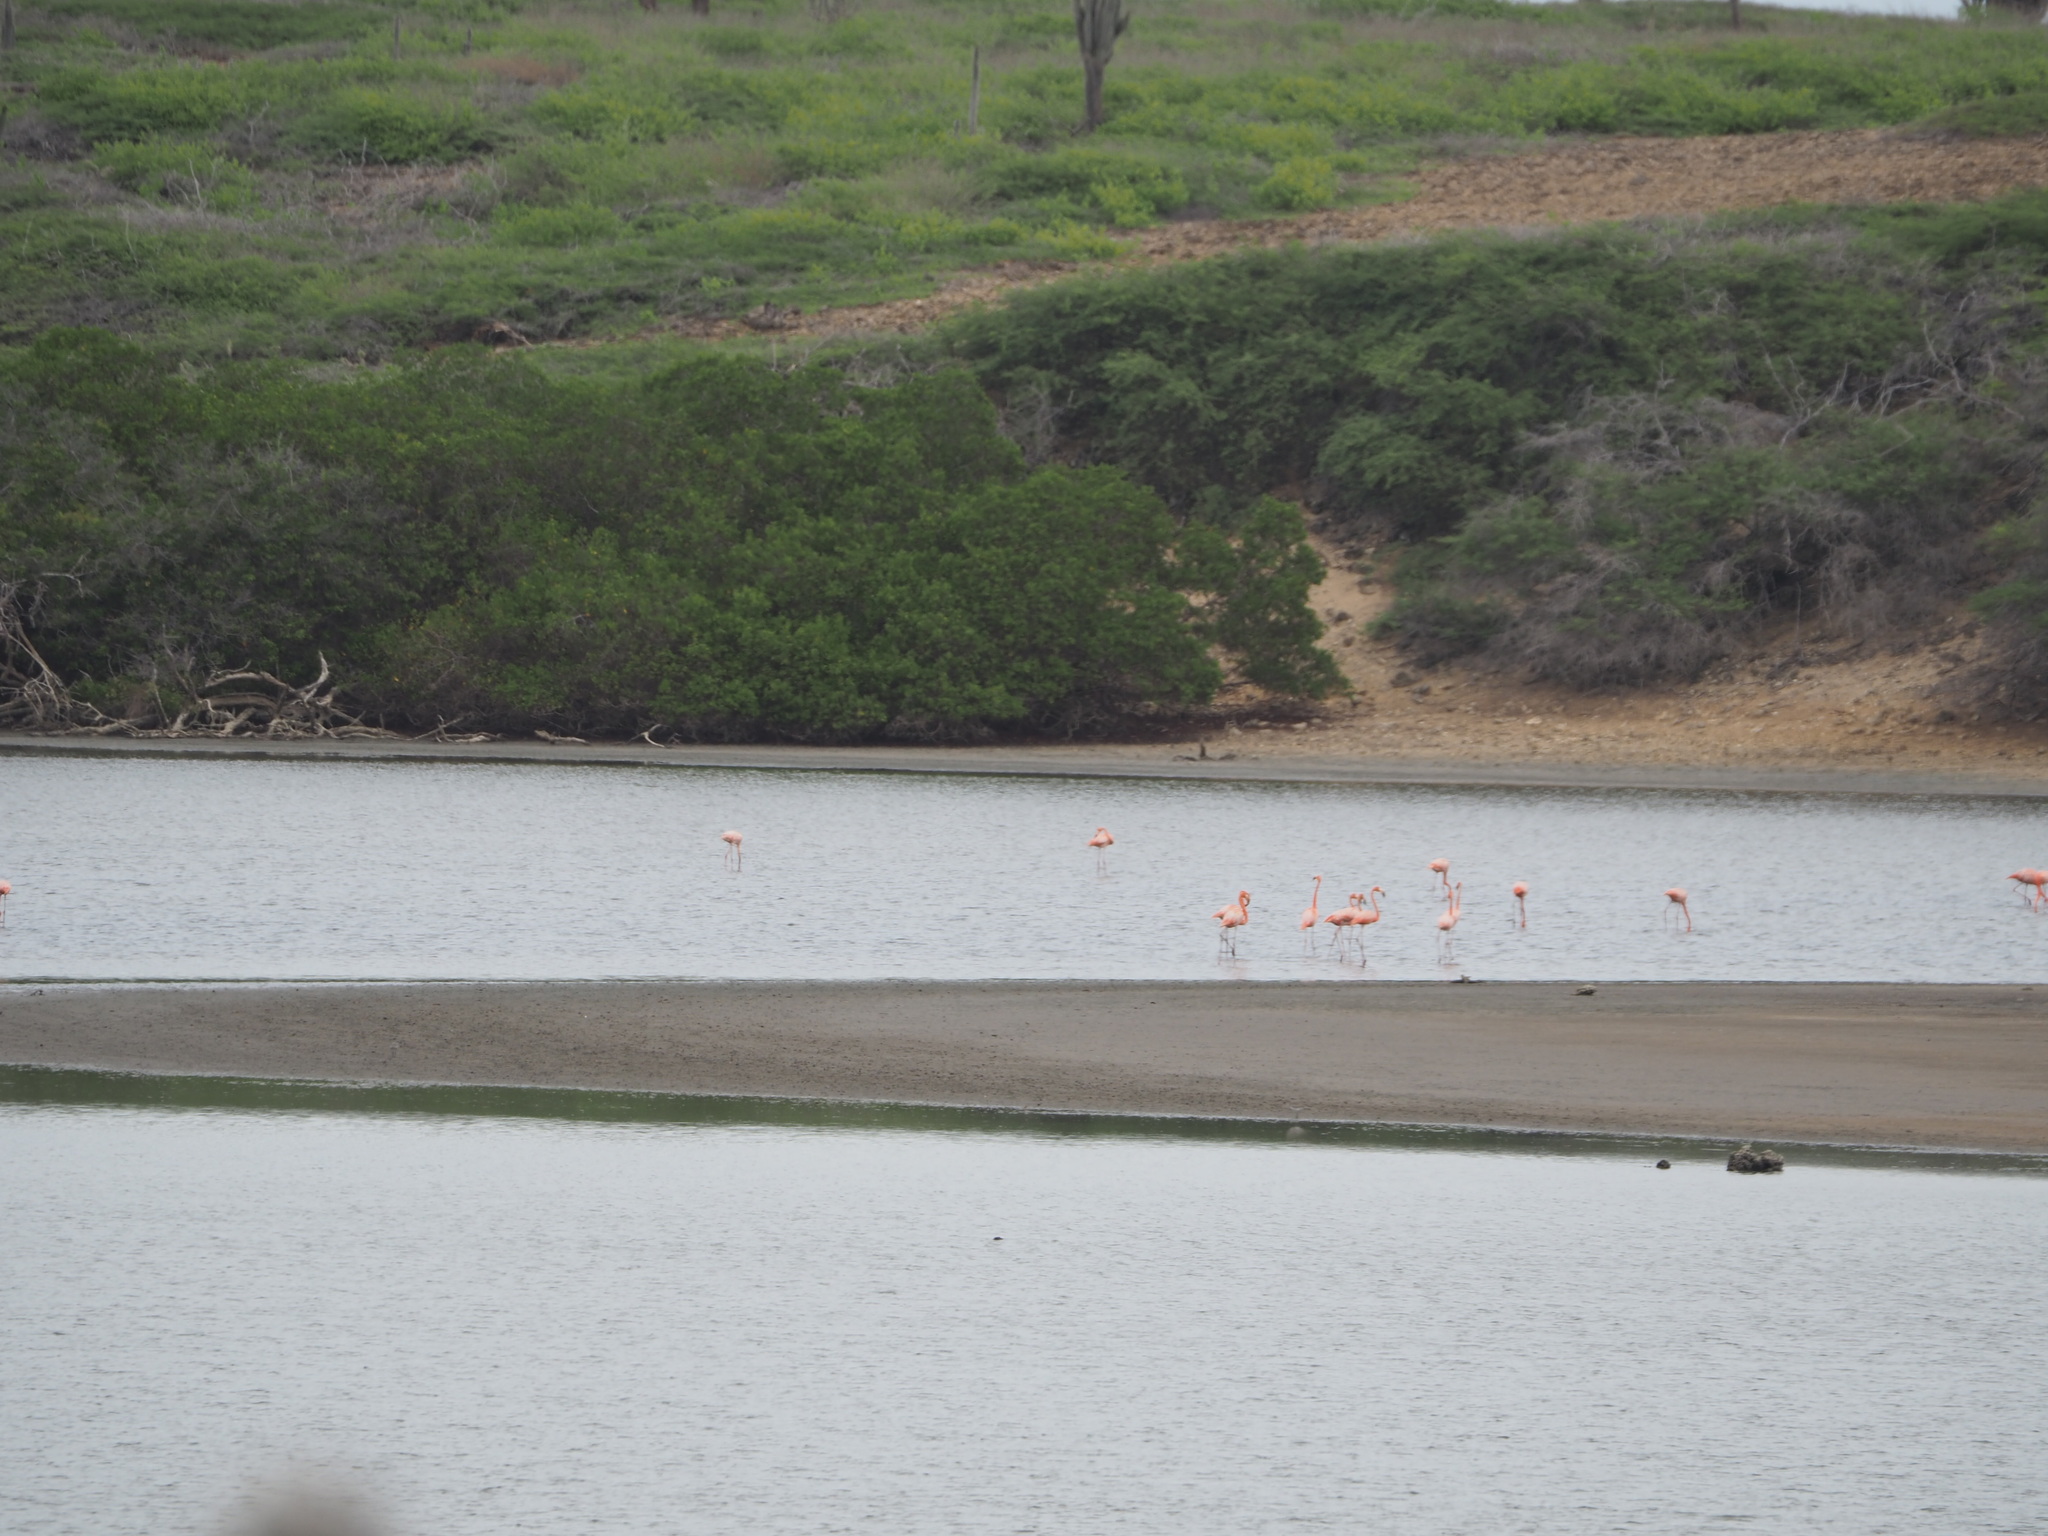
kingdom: Animalia
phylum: Chordata
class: Aves
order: Phoenicopteriformes
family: Phoenicopteridae
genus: Phoenicopterus
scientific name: Phoenicopterus ruber
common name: American flamingo
